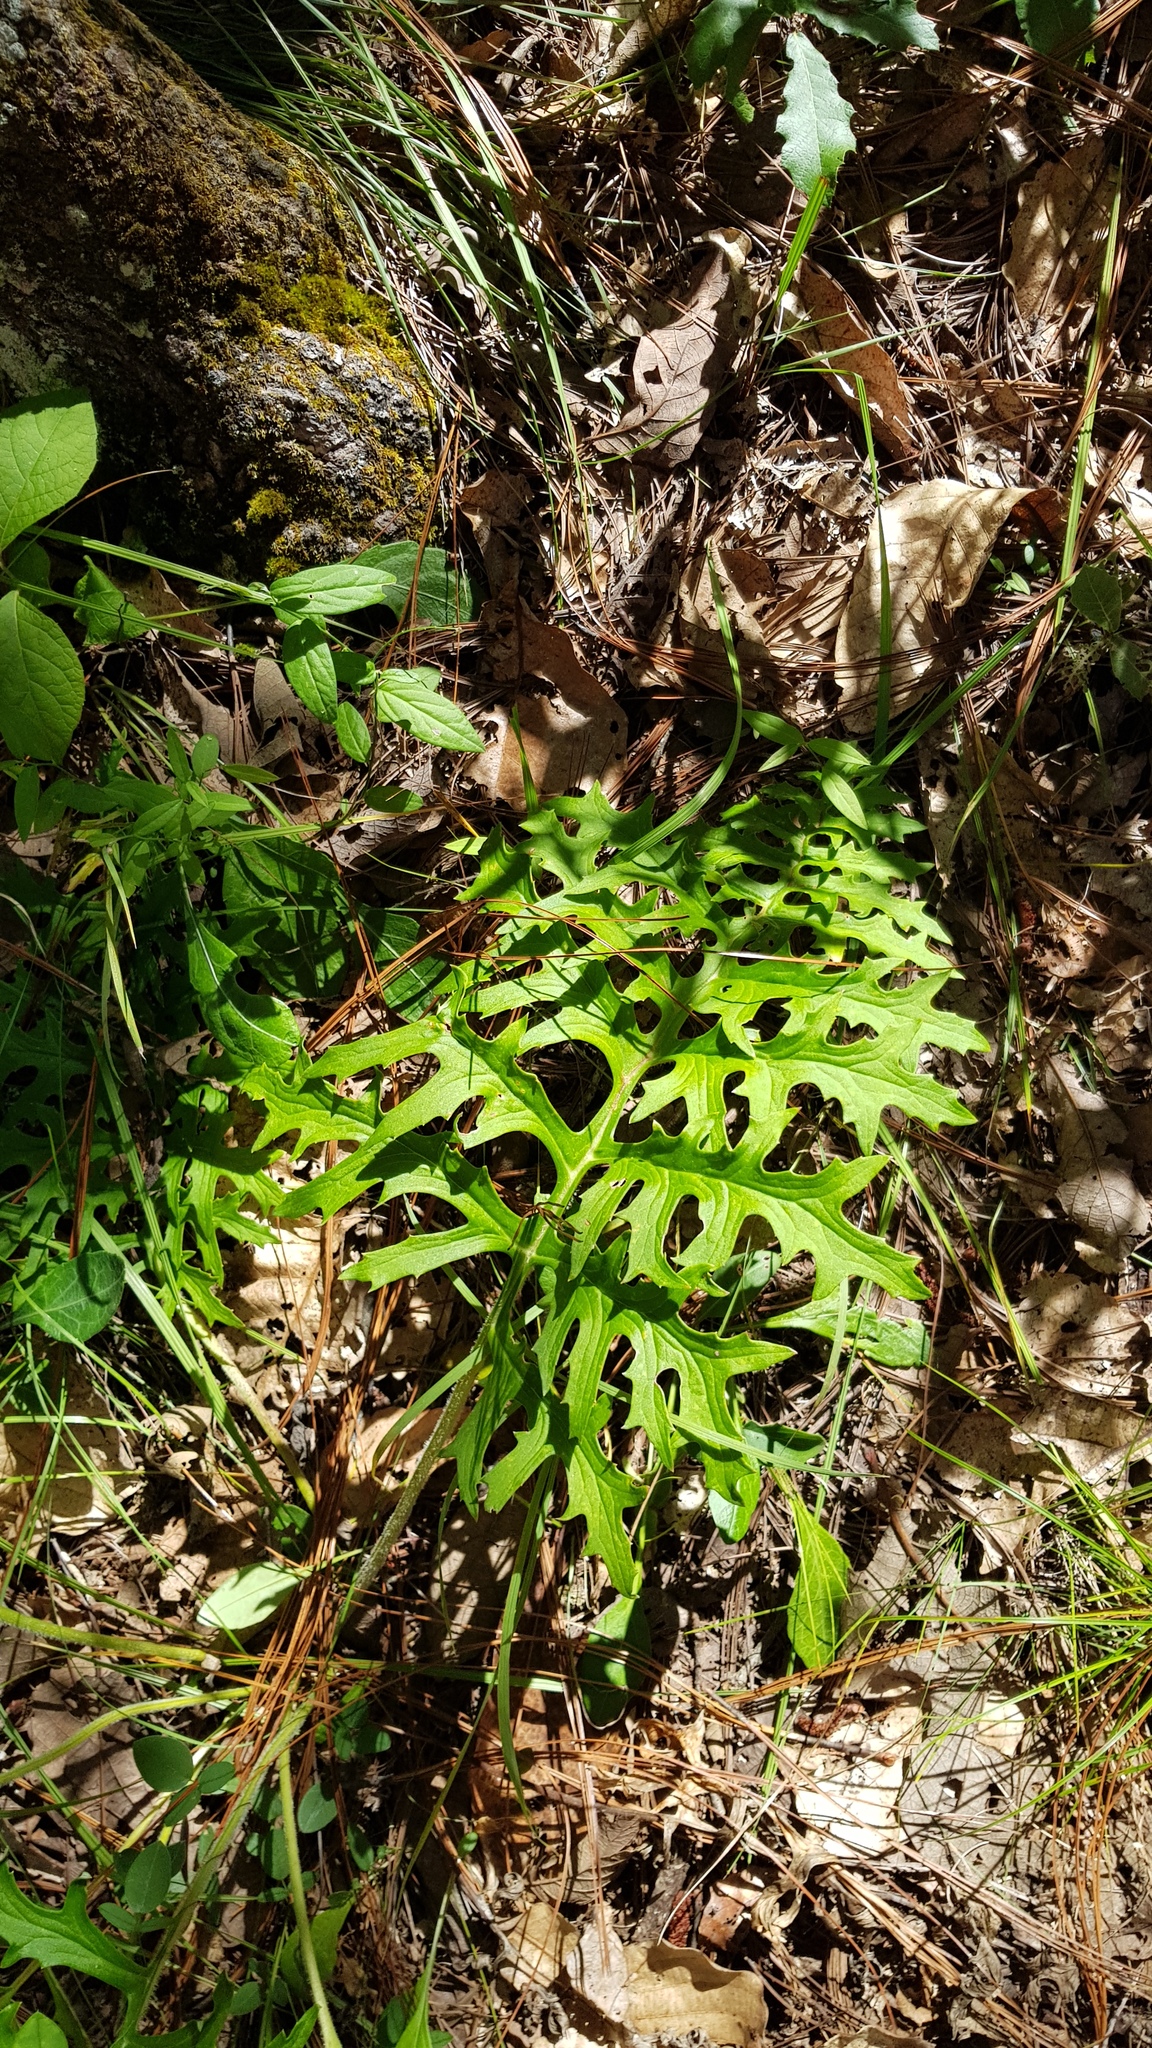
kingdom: Plantae
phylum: Tracheophyta
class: Magnoliopsida
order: Asterales
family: Asteraceae
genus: Psacalium
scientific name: Psacalium cirsiifolium
